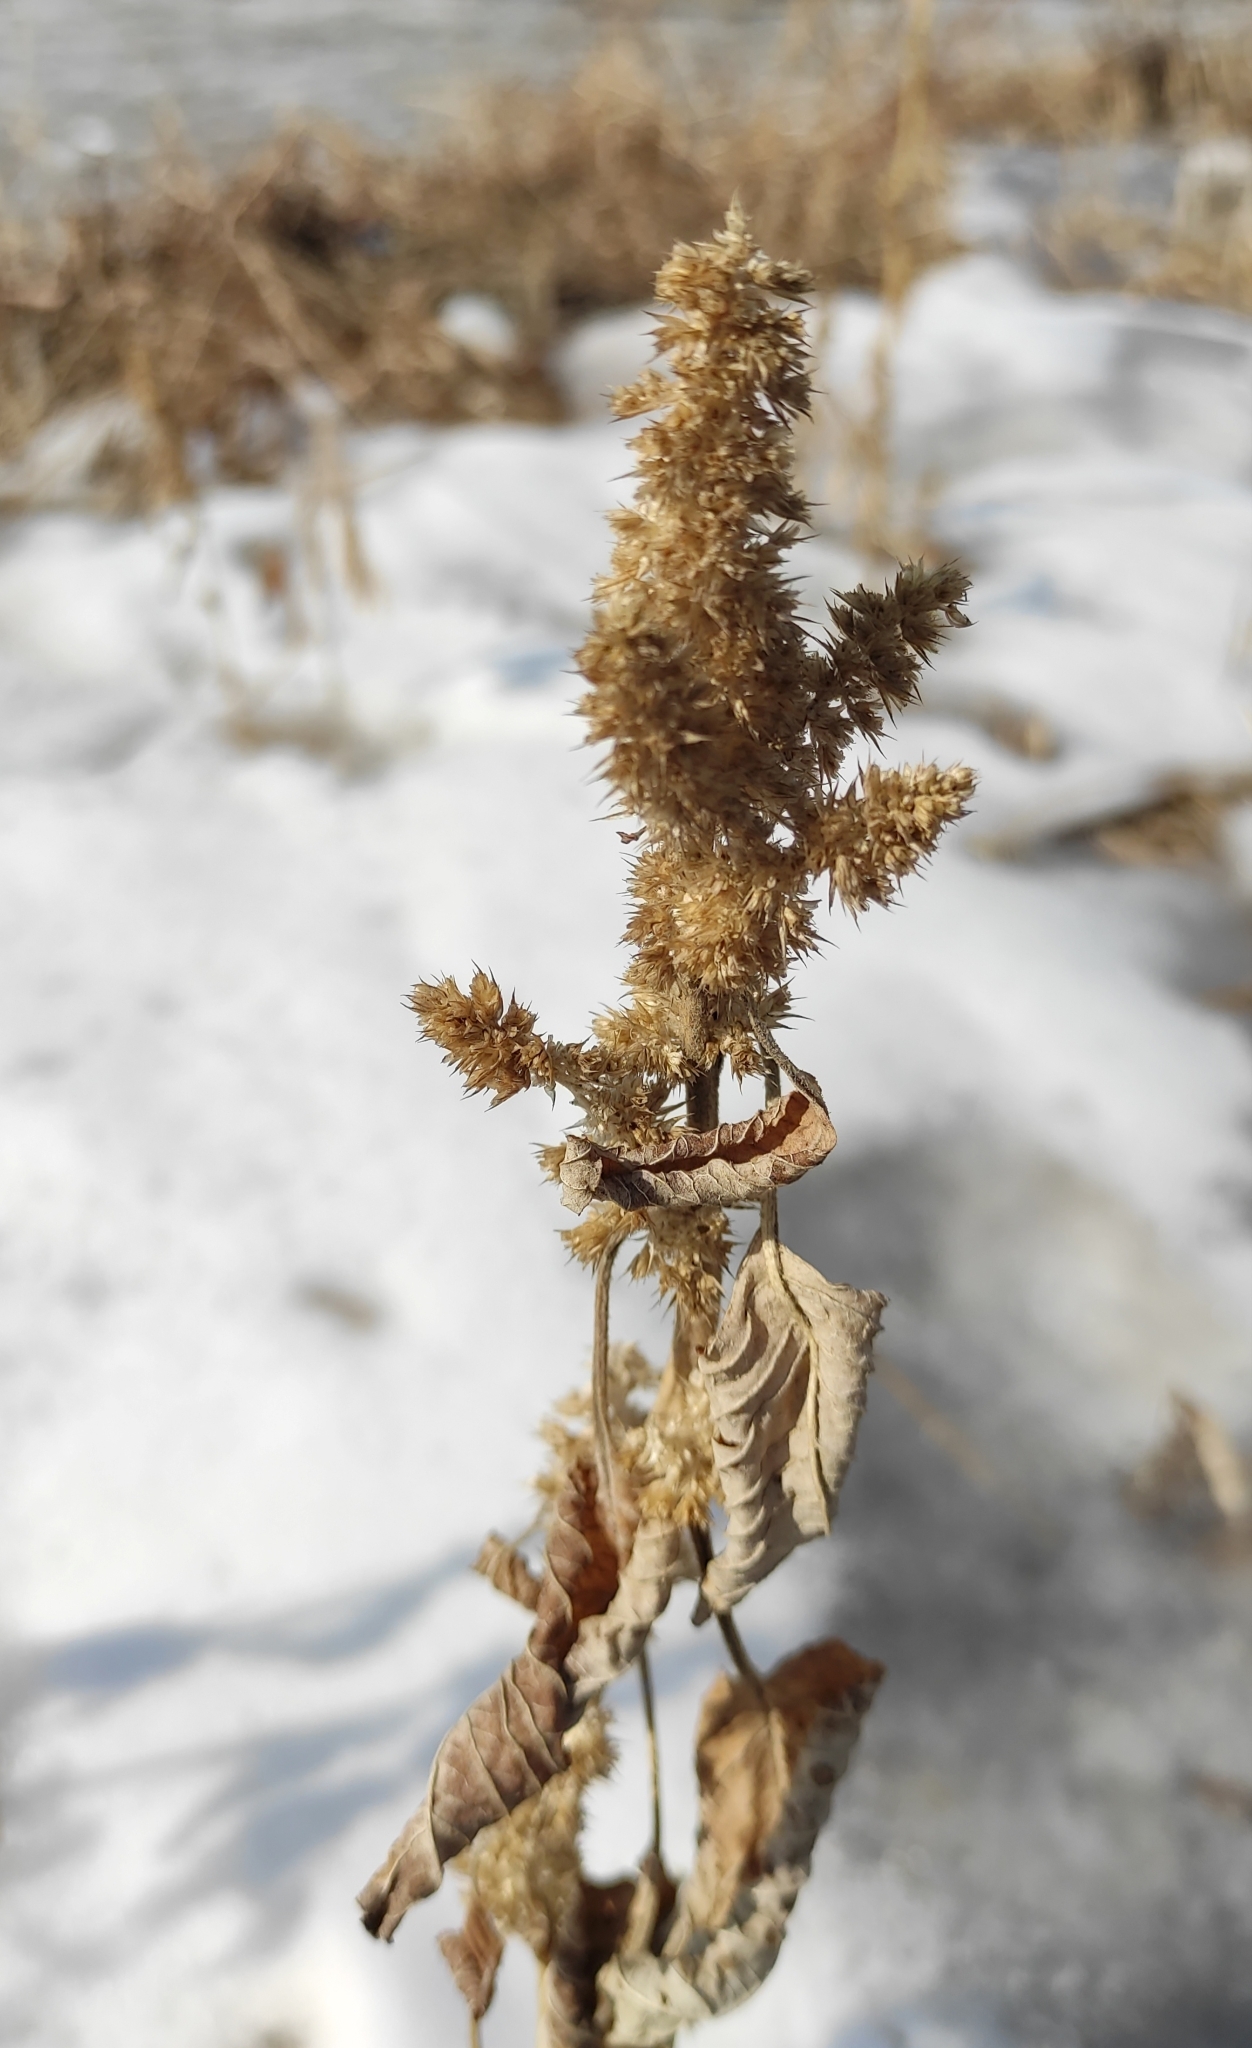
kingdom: Plantae
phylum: Tracheophyta
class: Magnoliopsida
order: Caryophyllales
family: Amaranthaceae
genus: Amaranthus
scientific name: Amaranthus retroflexus
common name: Redroot amaranth
